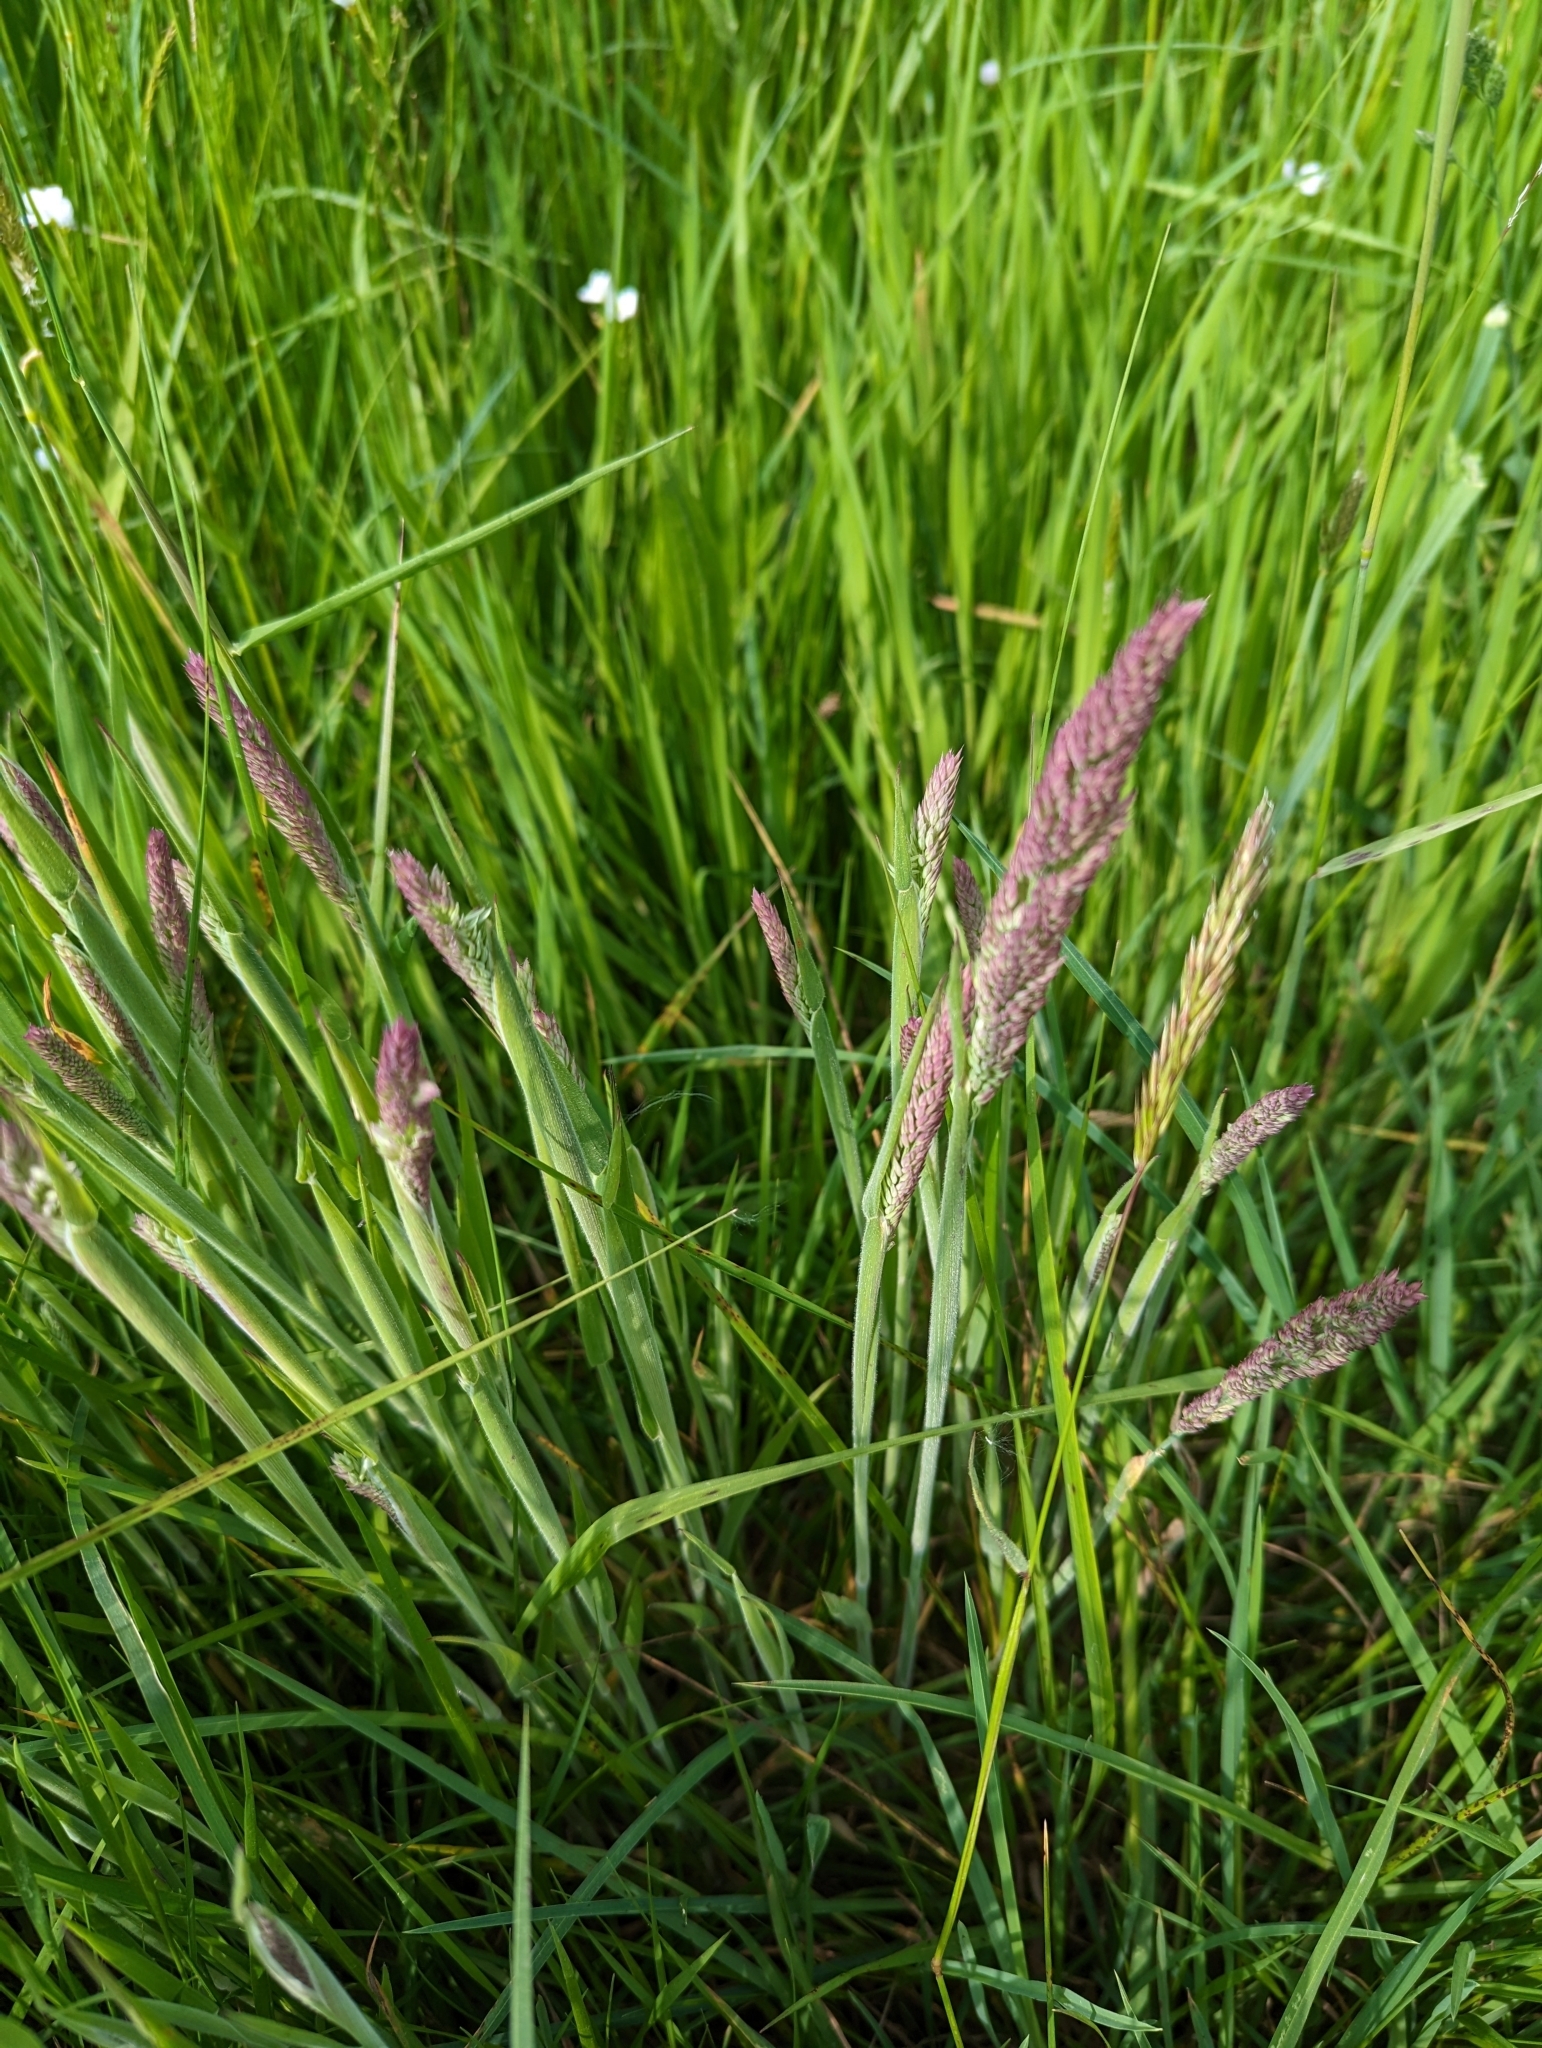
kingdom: Plantae
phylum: Tracheophyta
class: Liliopsida
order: Poales
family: Poaceae
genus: Holcus
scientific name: Holcus lanatus
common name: Yorkshire-fog
